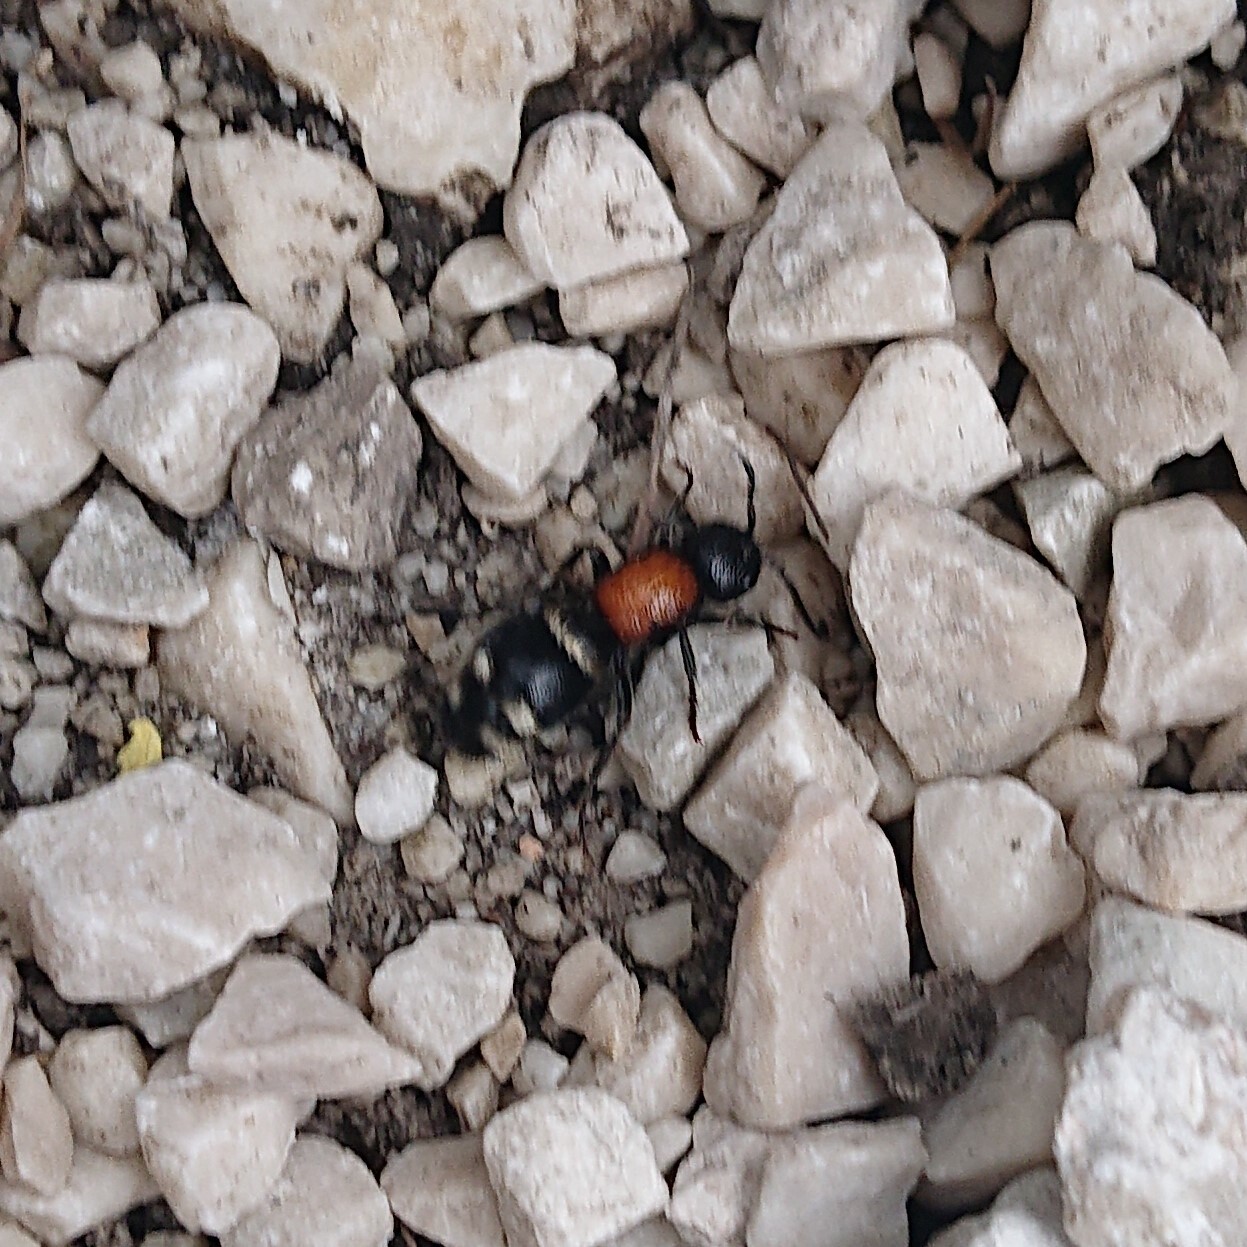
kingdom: Animalia
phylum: Arthropoda
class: Insecta
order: Hymenoptera
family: Mutillidae
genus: Mutilla
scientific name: Mutilla europaea
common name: Large velvet ant
